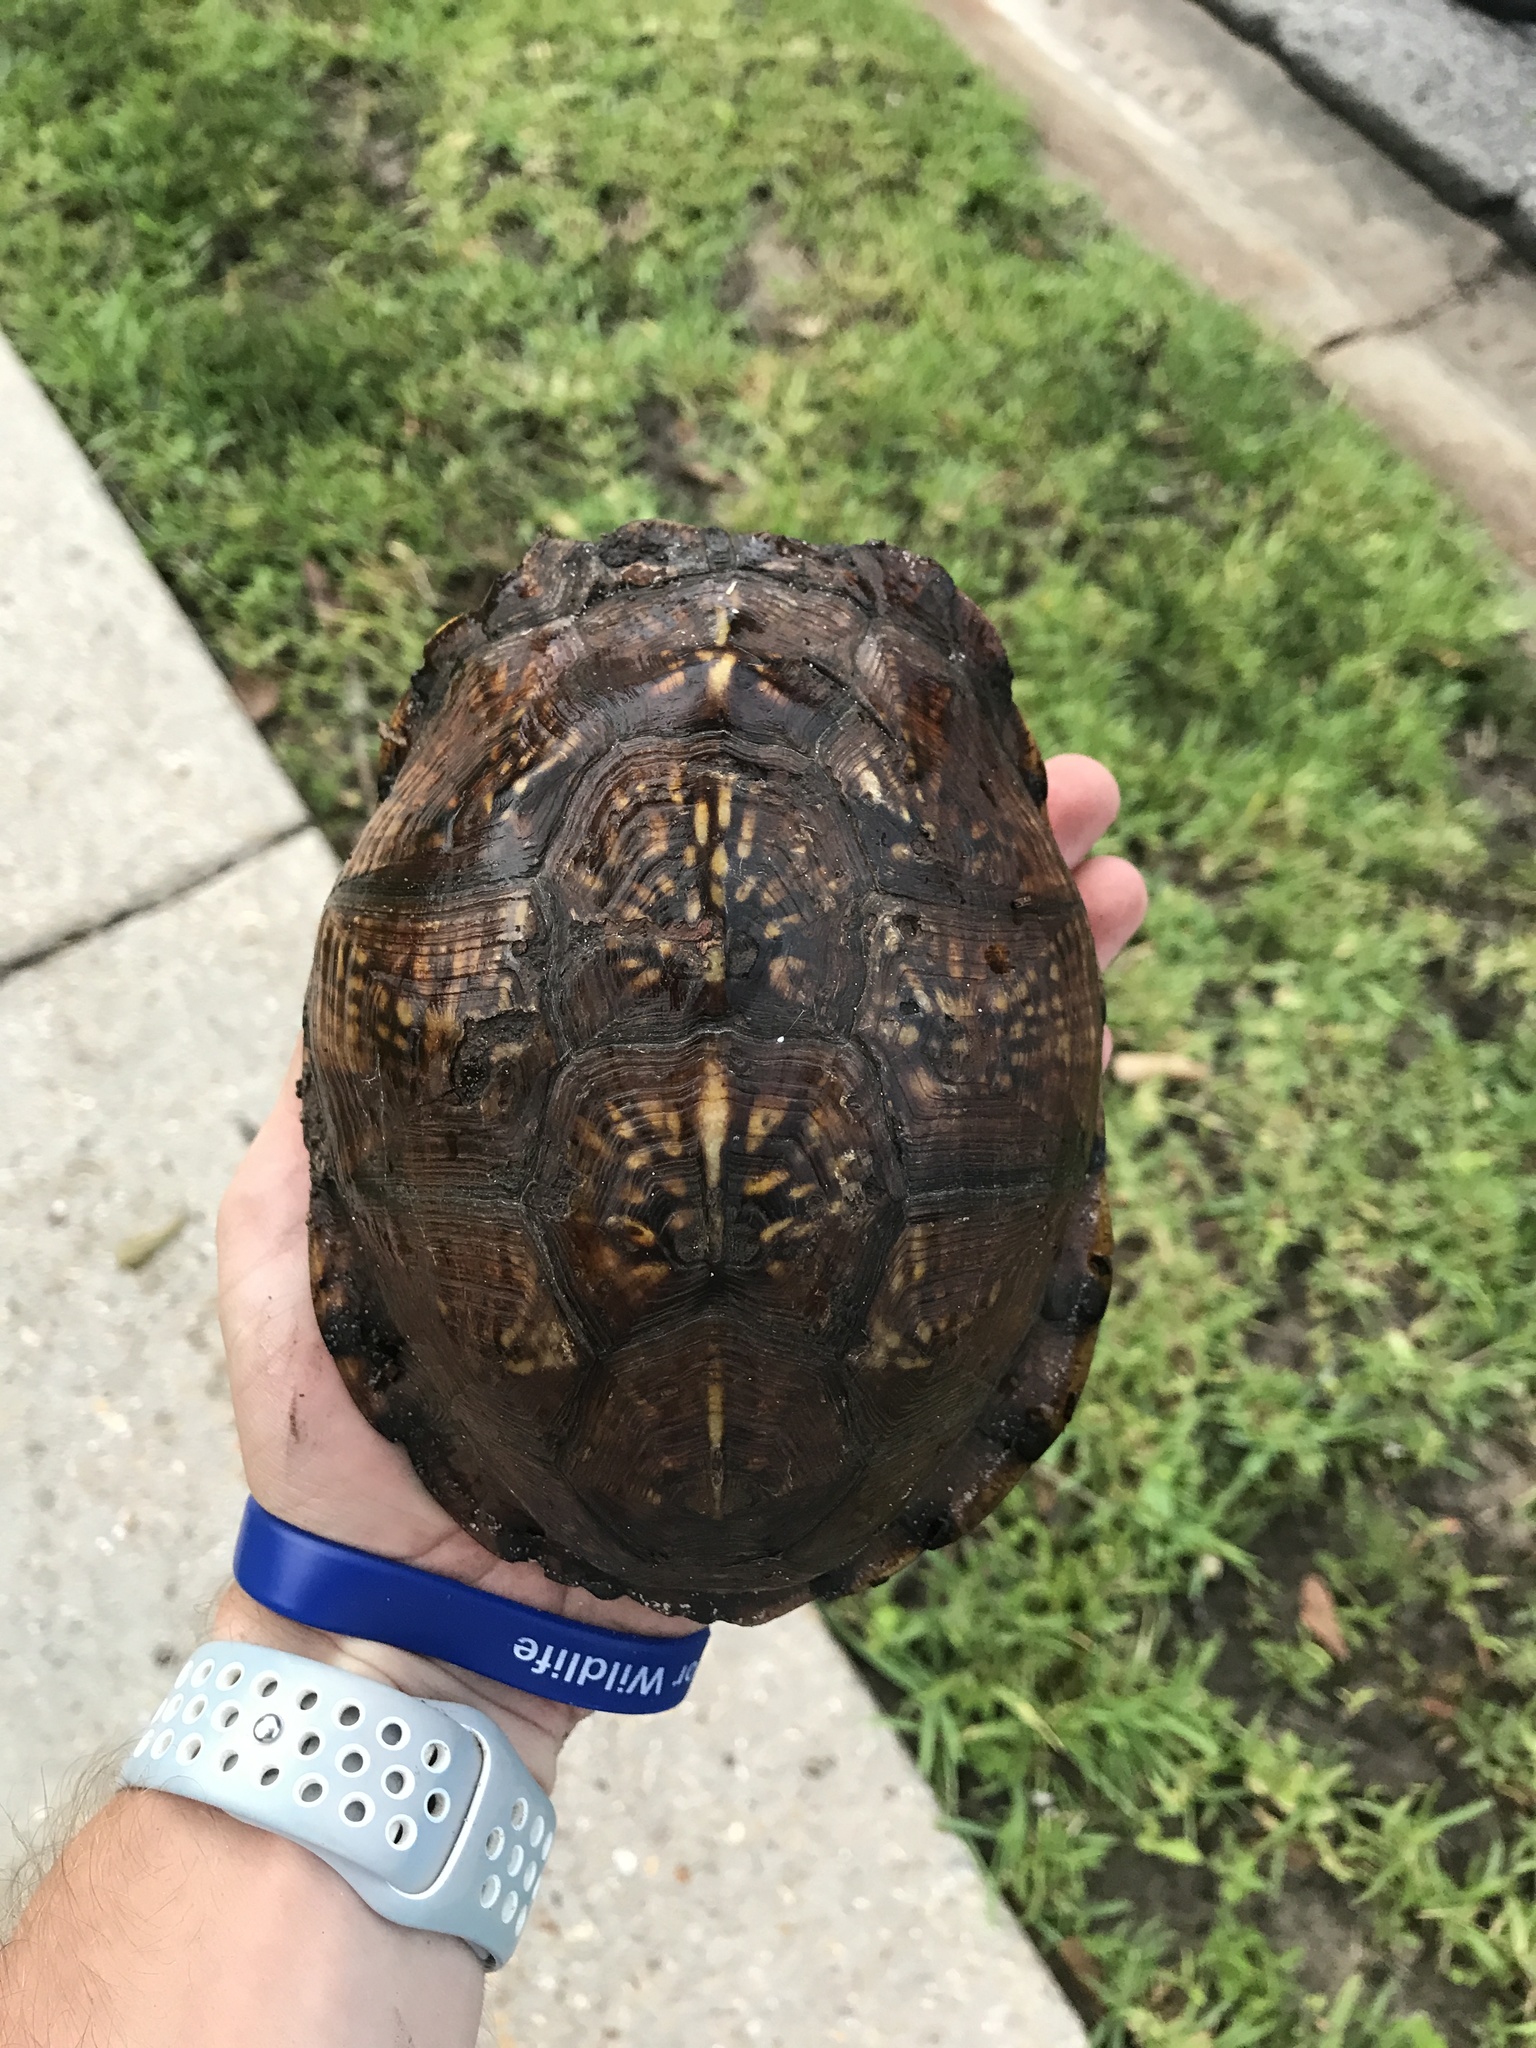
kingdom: Animalia
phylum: Chordata
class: Testudines
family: Emydidae
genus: Terrapene
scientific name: Terrapene carolina
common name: Common box turtle
